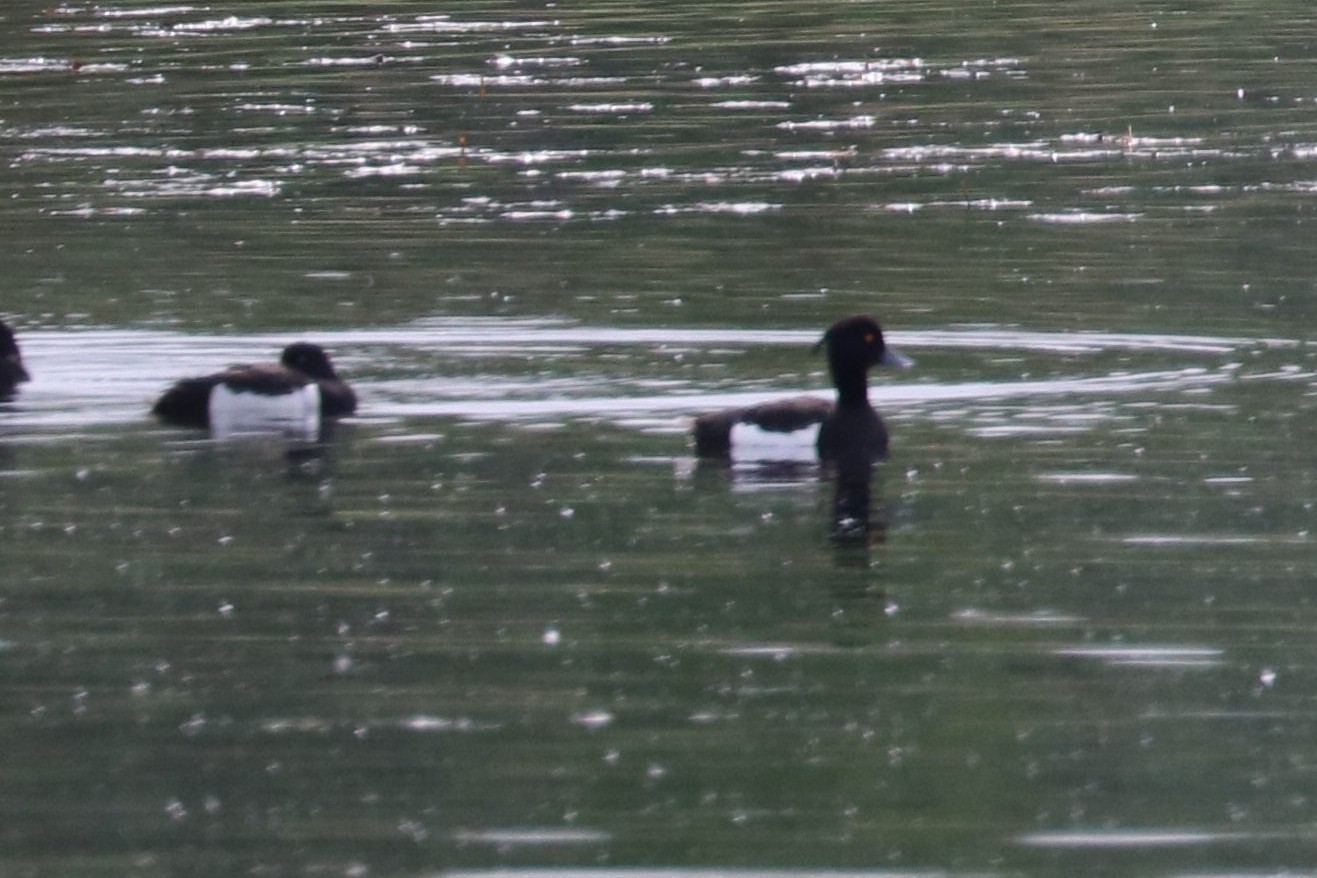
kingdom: Animalia
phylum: Chordata
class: Aves
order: Anseriformes
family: Anatidae
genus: Aythya
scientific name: Aythya fuligula
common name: Tufted duck
